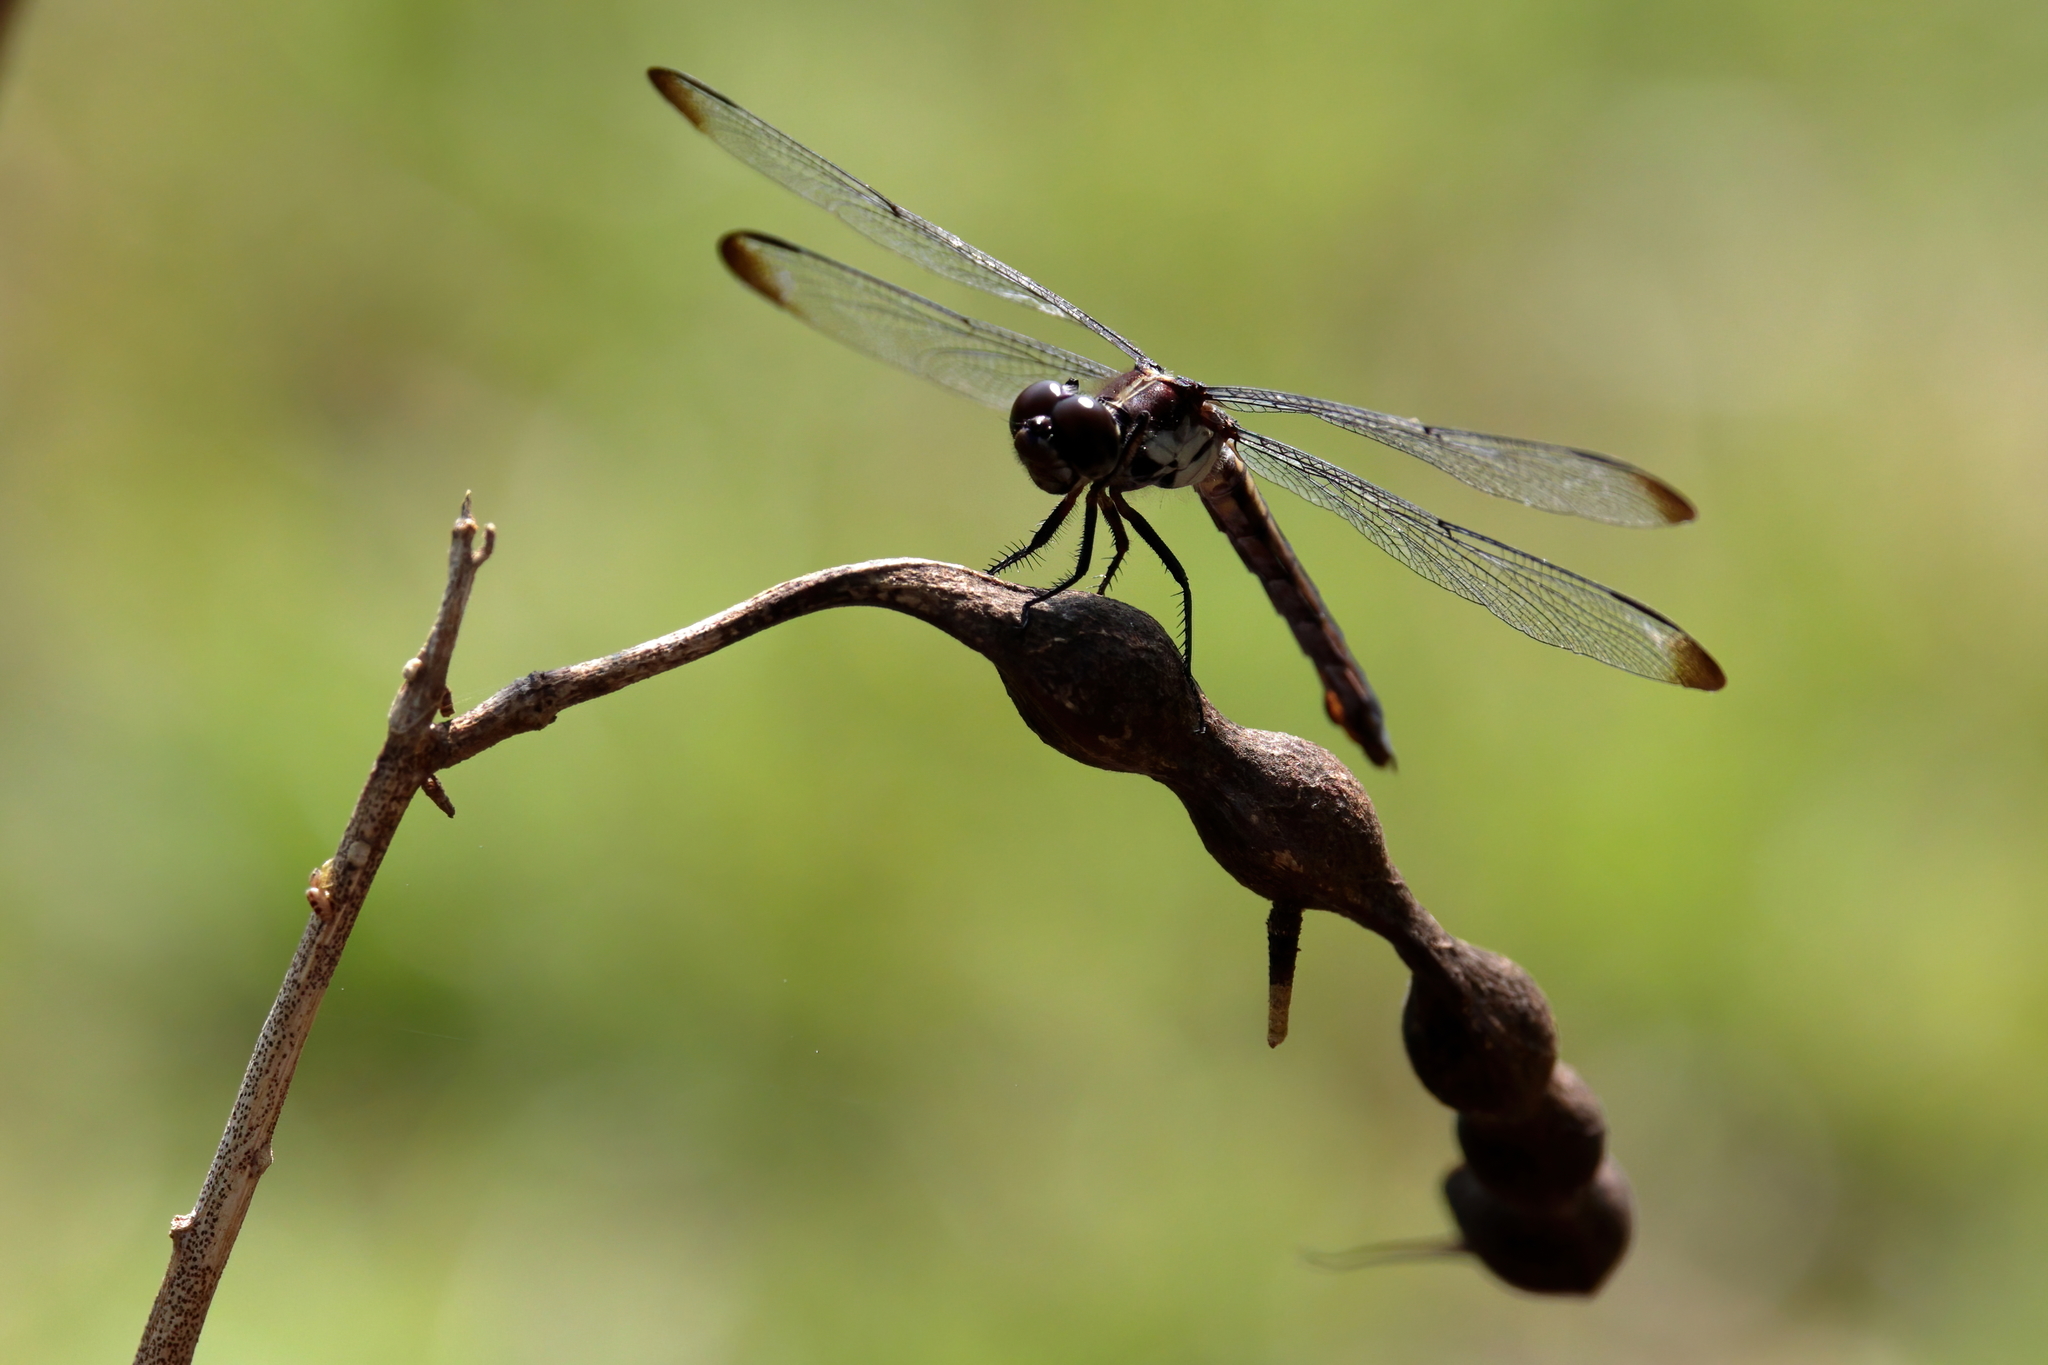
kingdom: Animalia
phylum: Arthropoda
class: Insecta
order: Odonata
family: Libellulidae
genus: Libellula
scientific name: Libellula incesta
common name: Slaty skimmer
